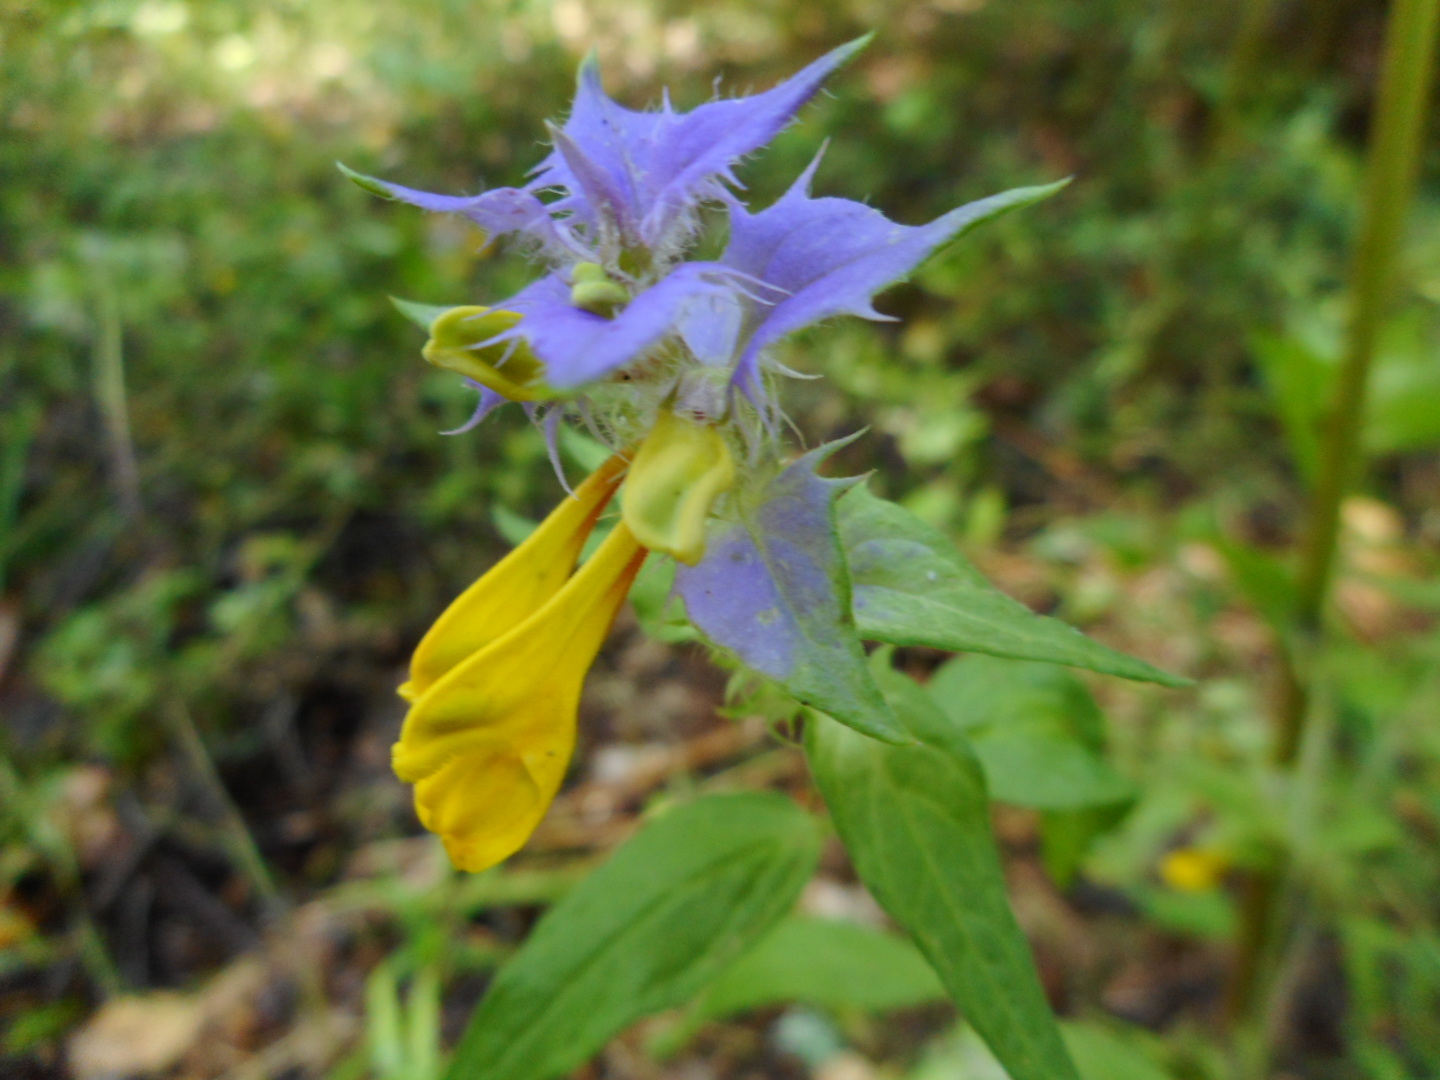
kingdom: Plantae
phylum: Tracheophyta
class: Magnoliopsida
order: Lamiales
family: Orobanchaceae
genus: Melampyrum
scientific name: Melampyrum nemorosum
